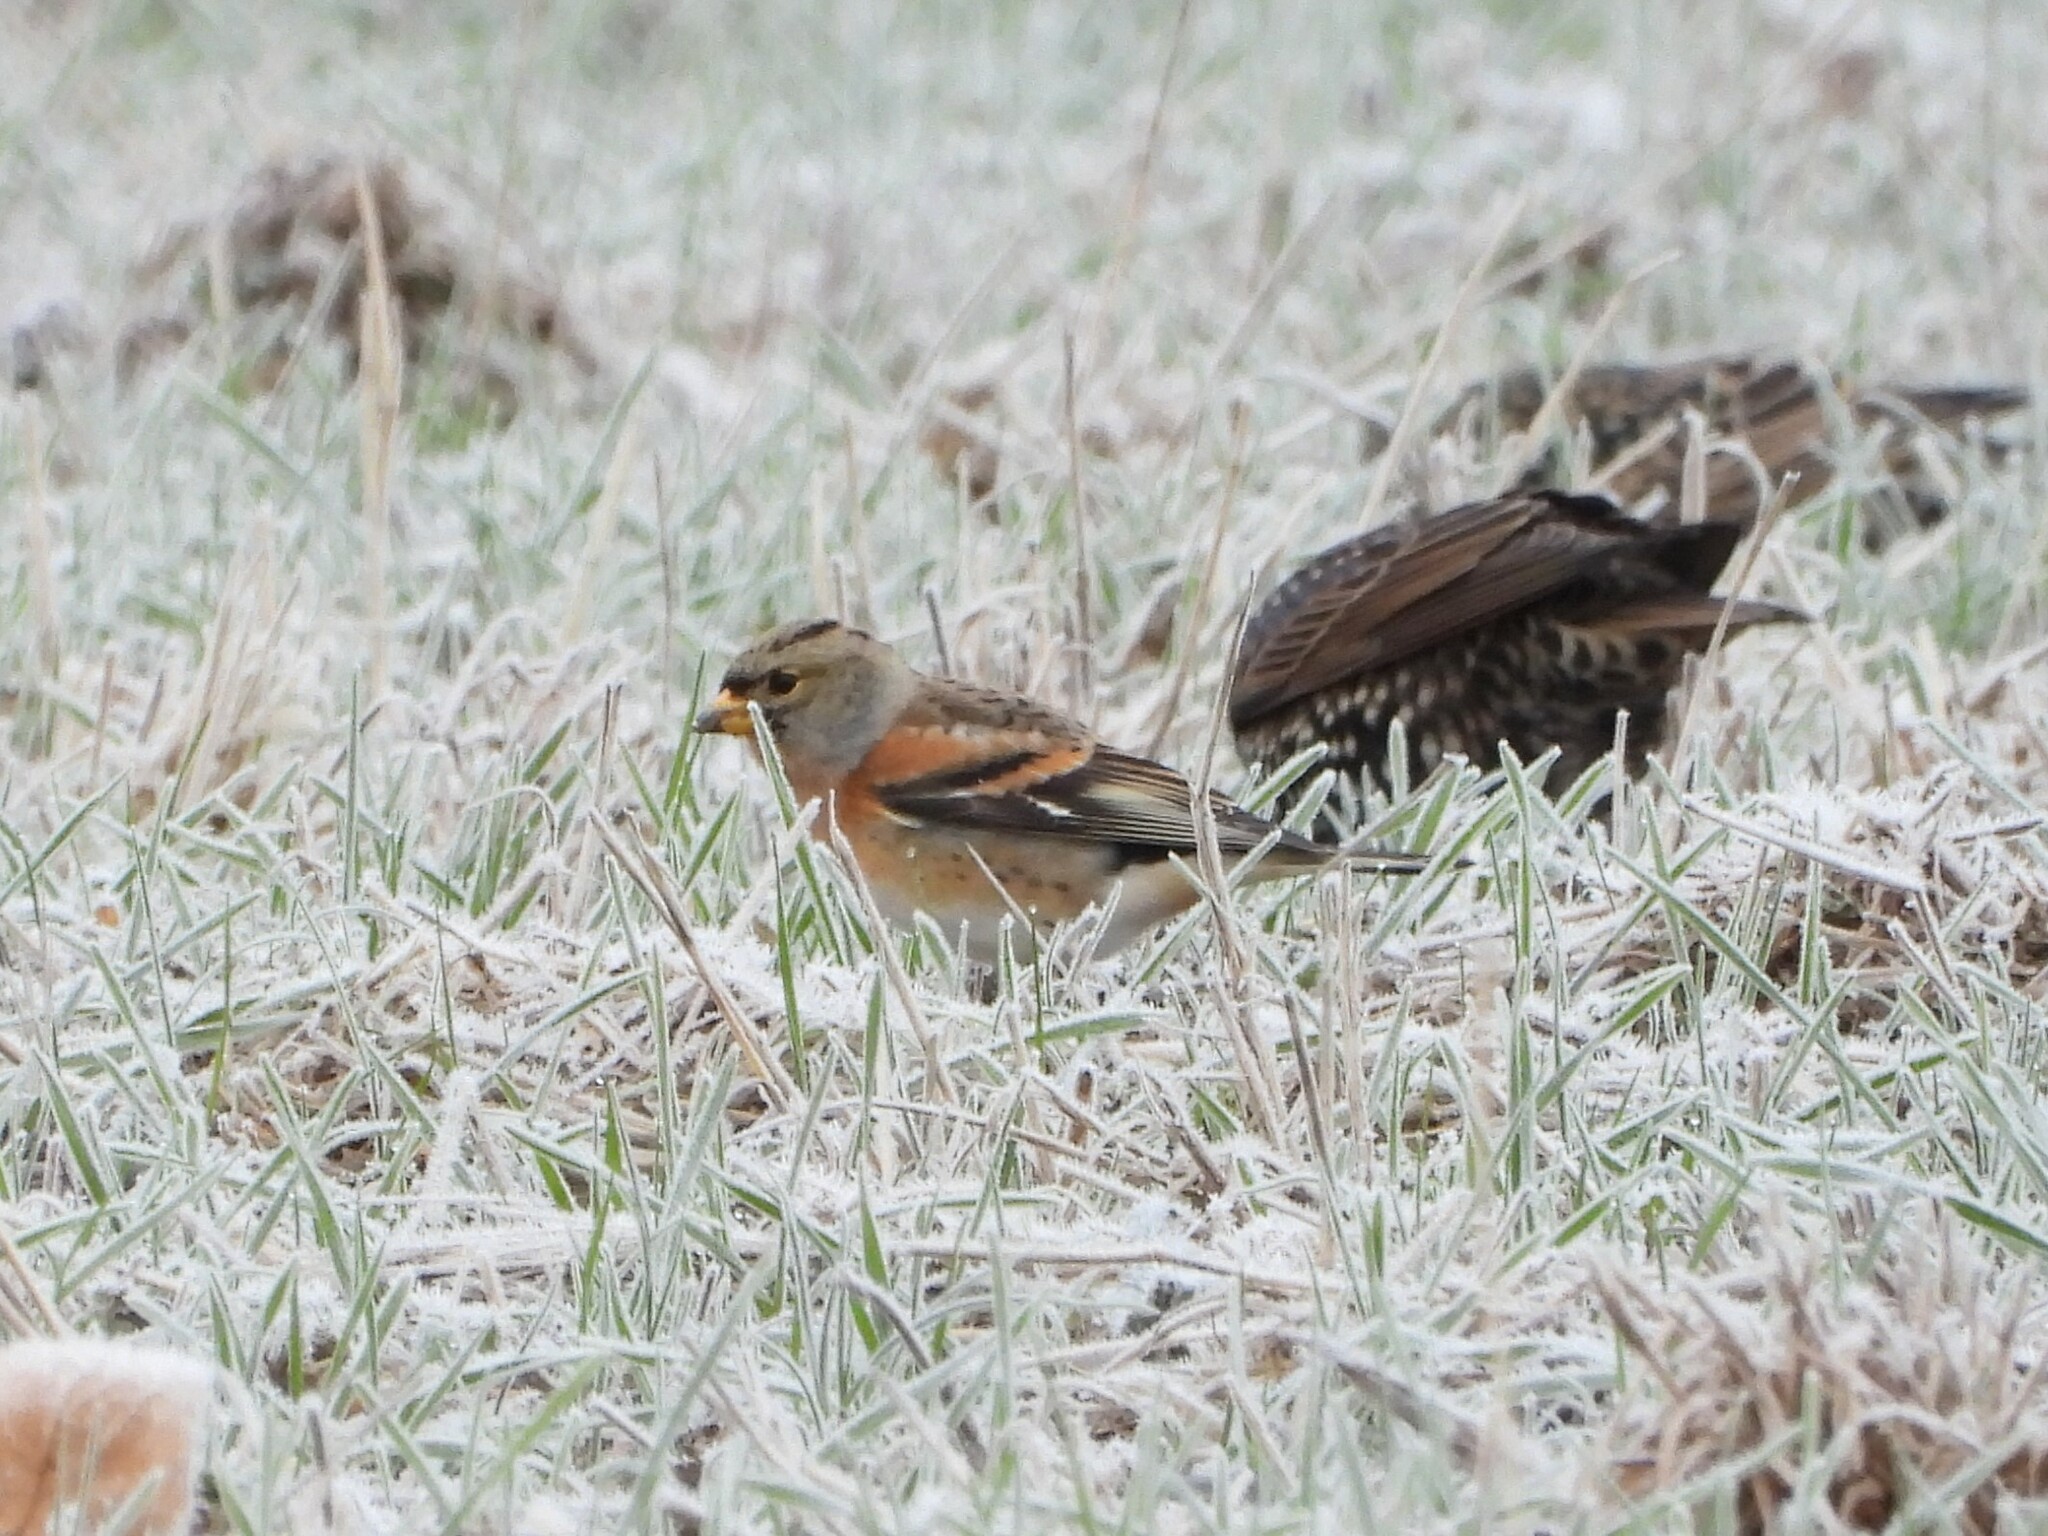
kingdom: Animalia
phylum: Chordata
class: Aves
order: Passeriformes
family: Fringillidae
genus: Fringilla
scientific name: Fringilla montifringilla
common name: Brambling
